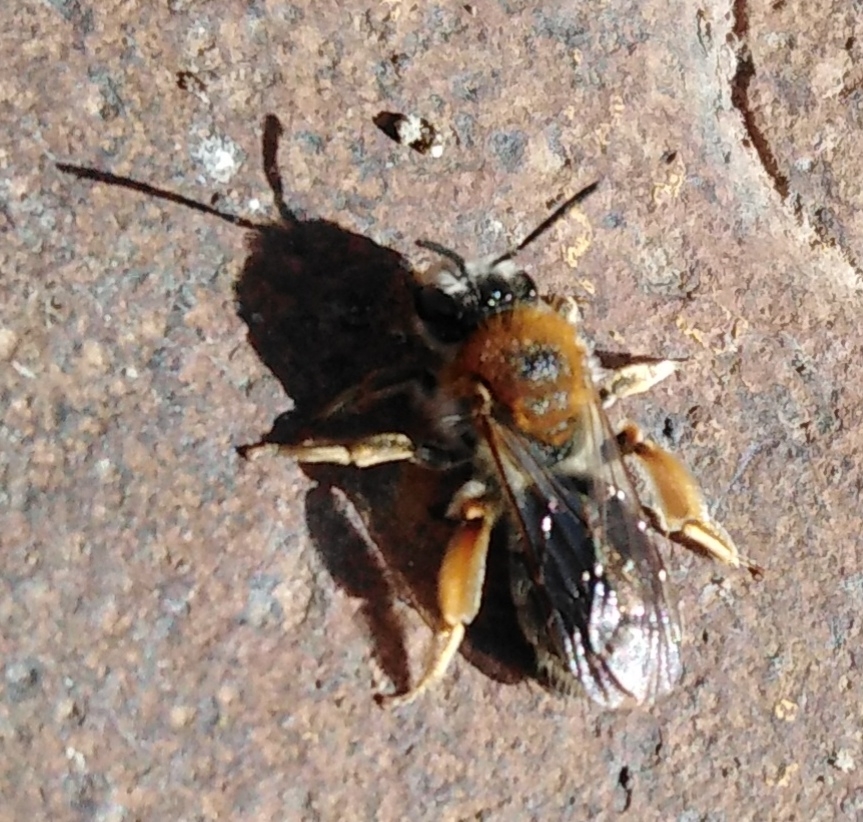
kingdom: Animalia
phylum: Arthropoda
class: Insecta
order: Hymenoptera
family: Andrenidae
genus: Andrena
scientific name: Andrena haemorrhoa
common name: Early mining bee
